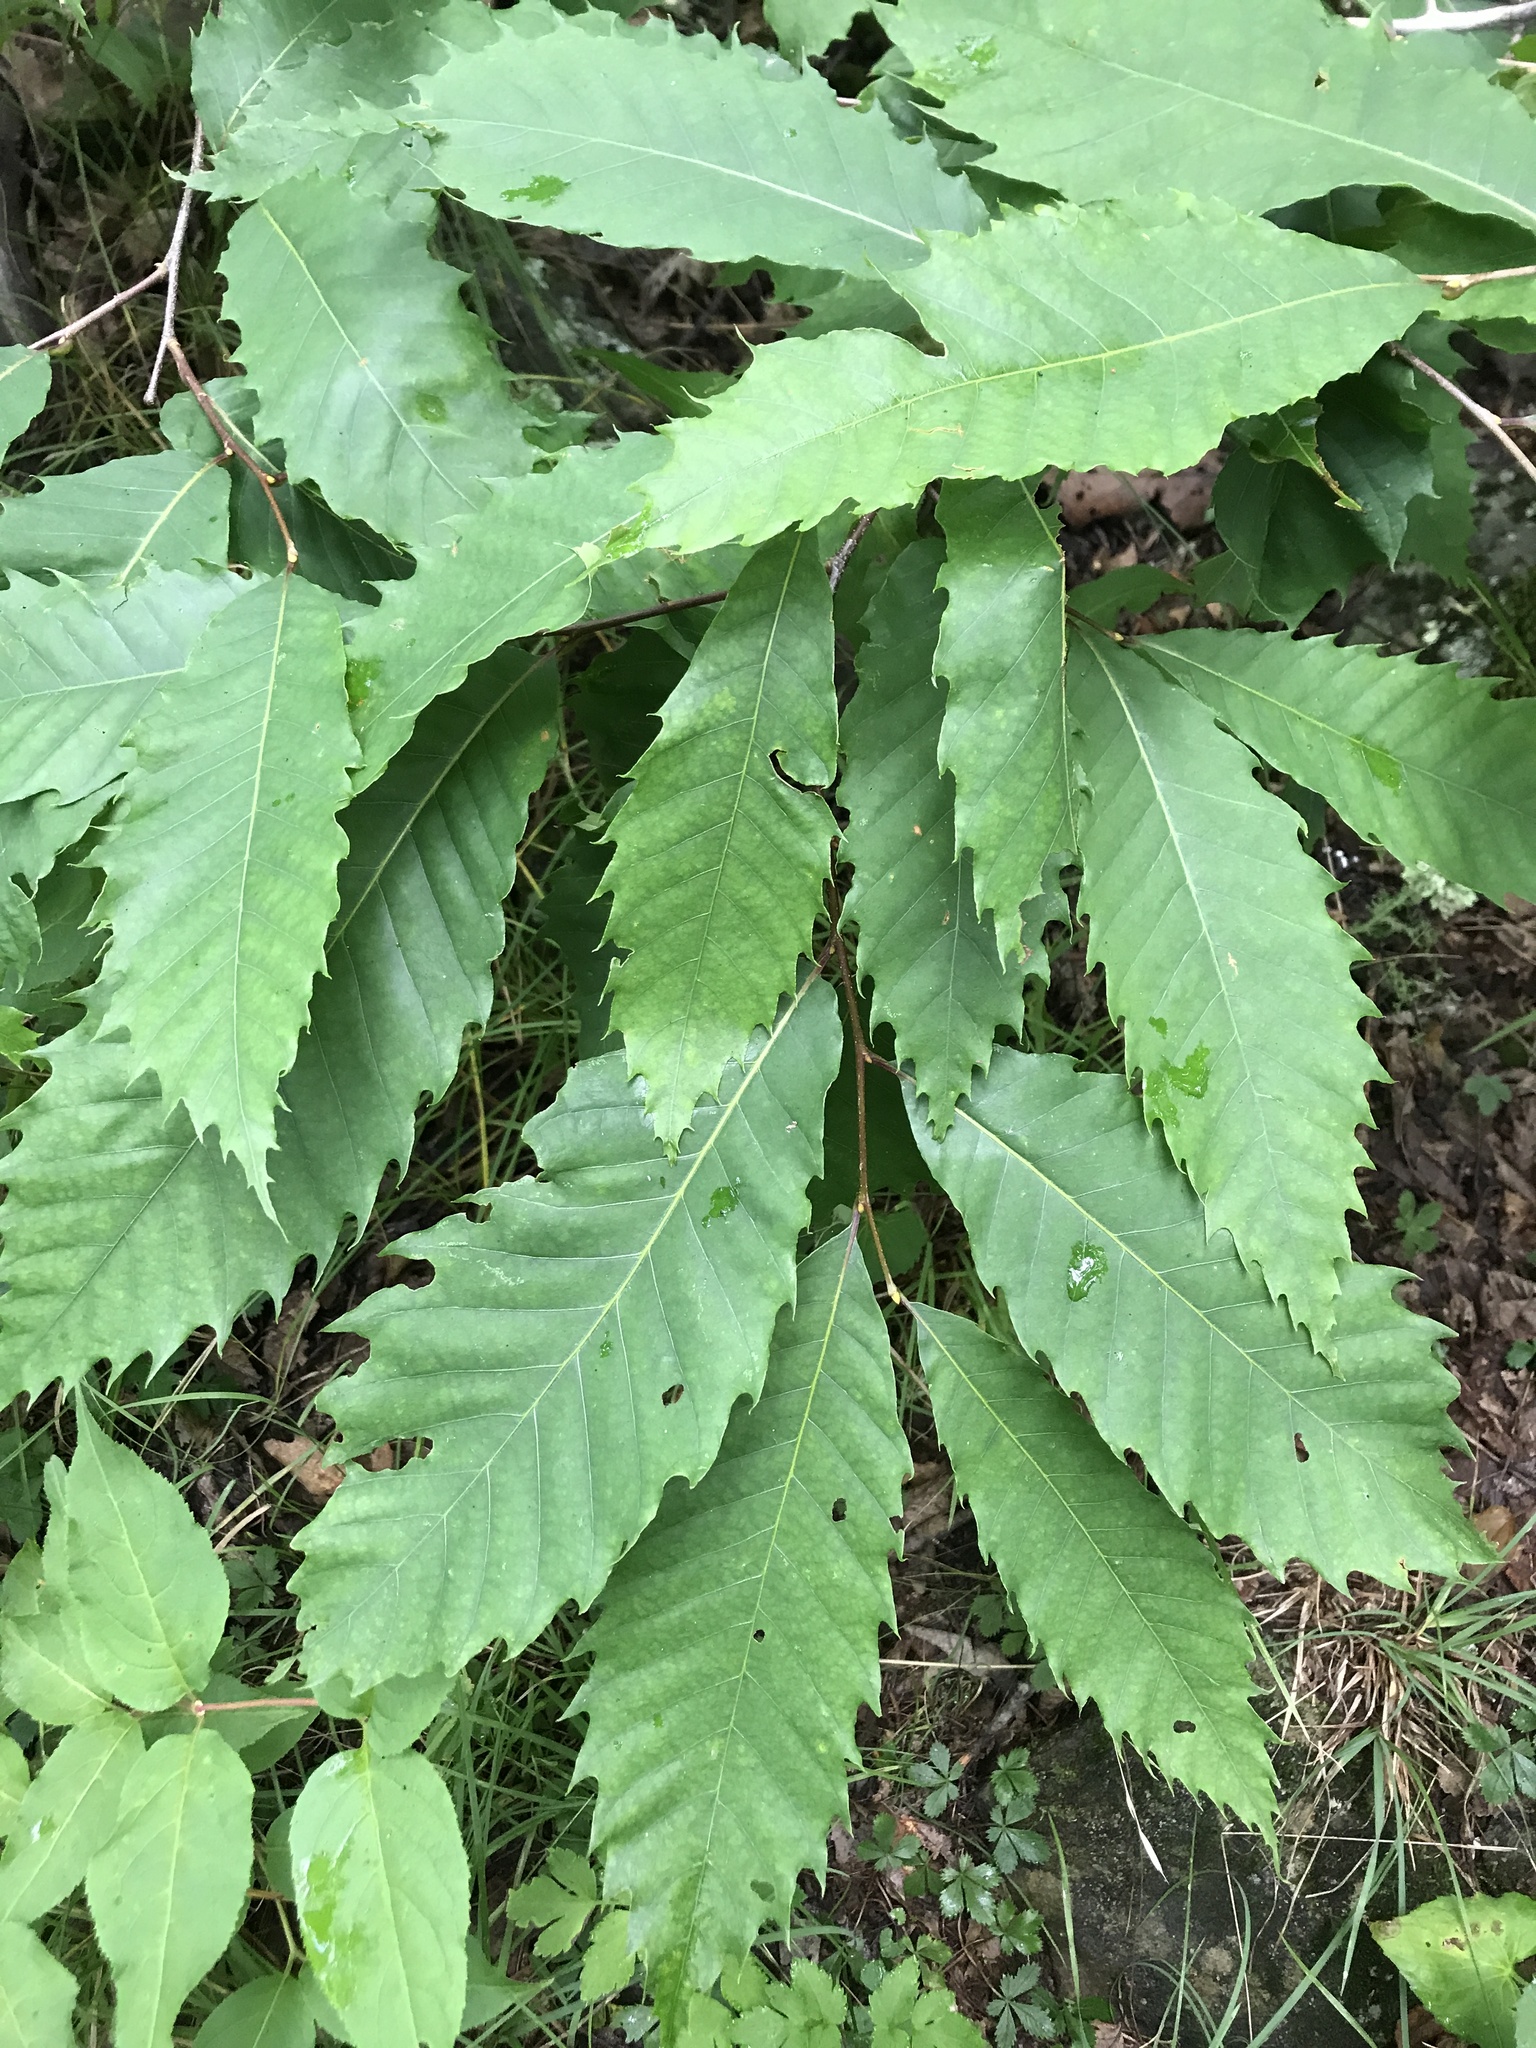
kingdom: Plantae
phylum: Tracheophyta
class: Magnoliopsida
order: Fagales
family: Fagaceae
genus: Castanea
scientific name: Castanea dentata
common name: American chestnut
